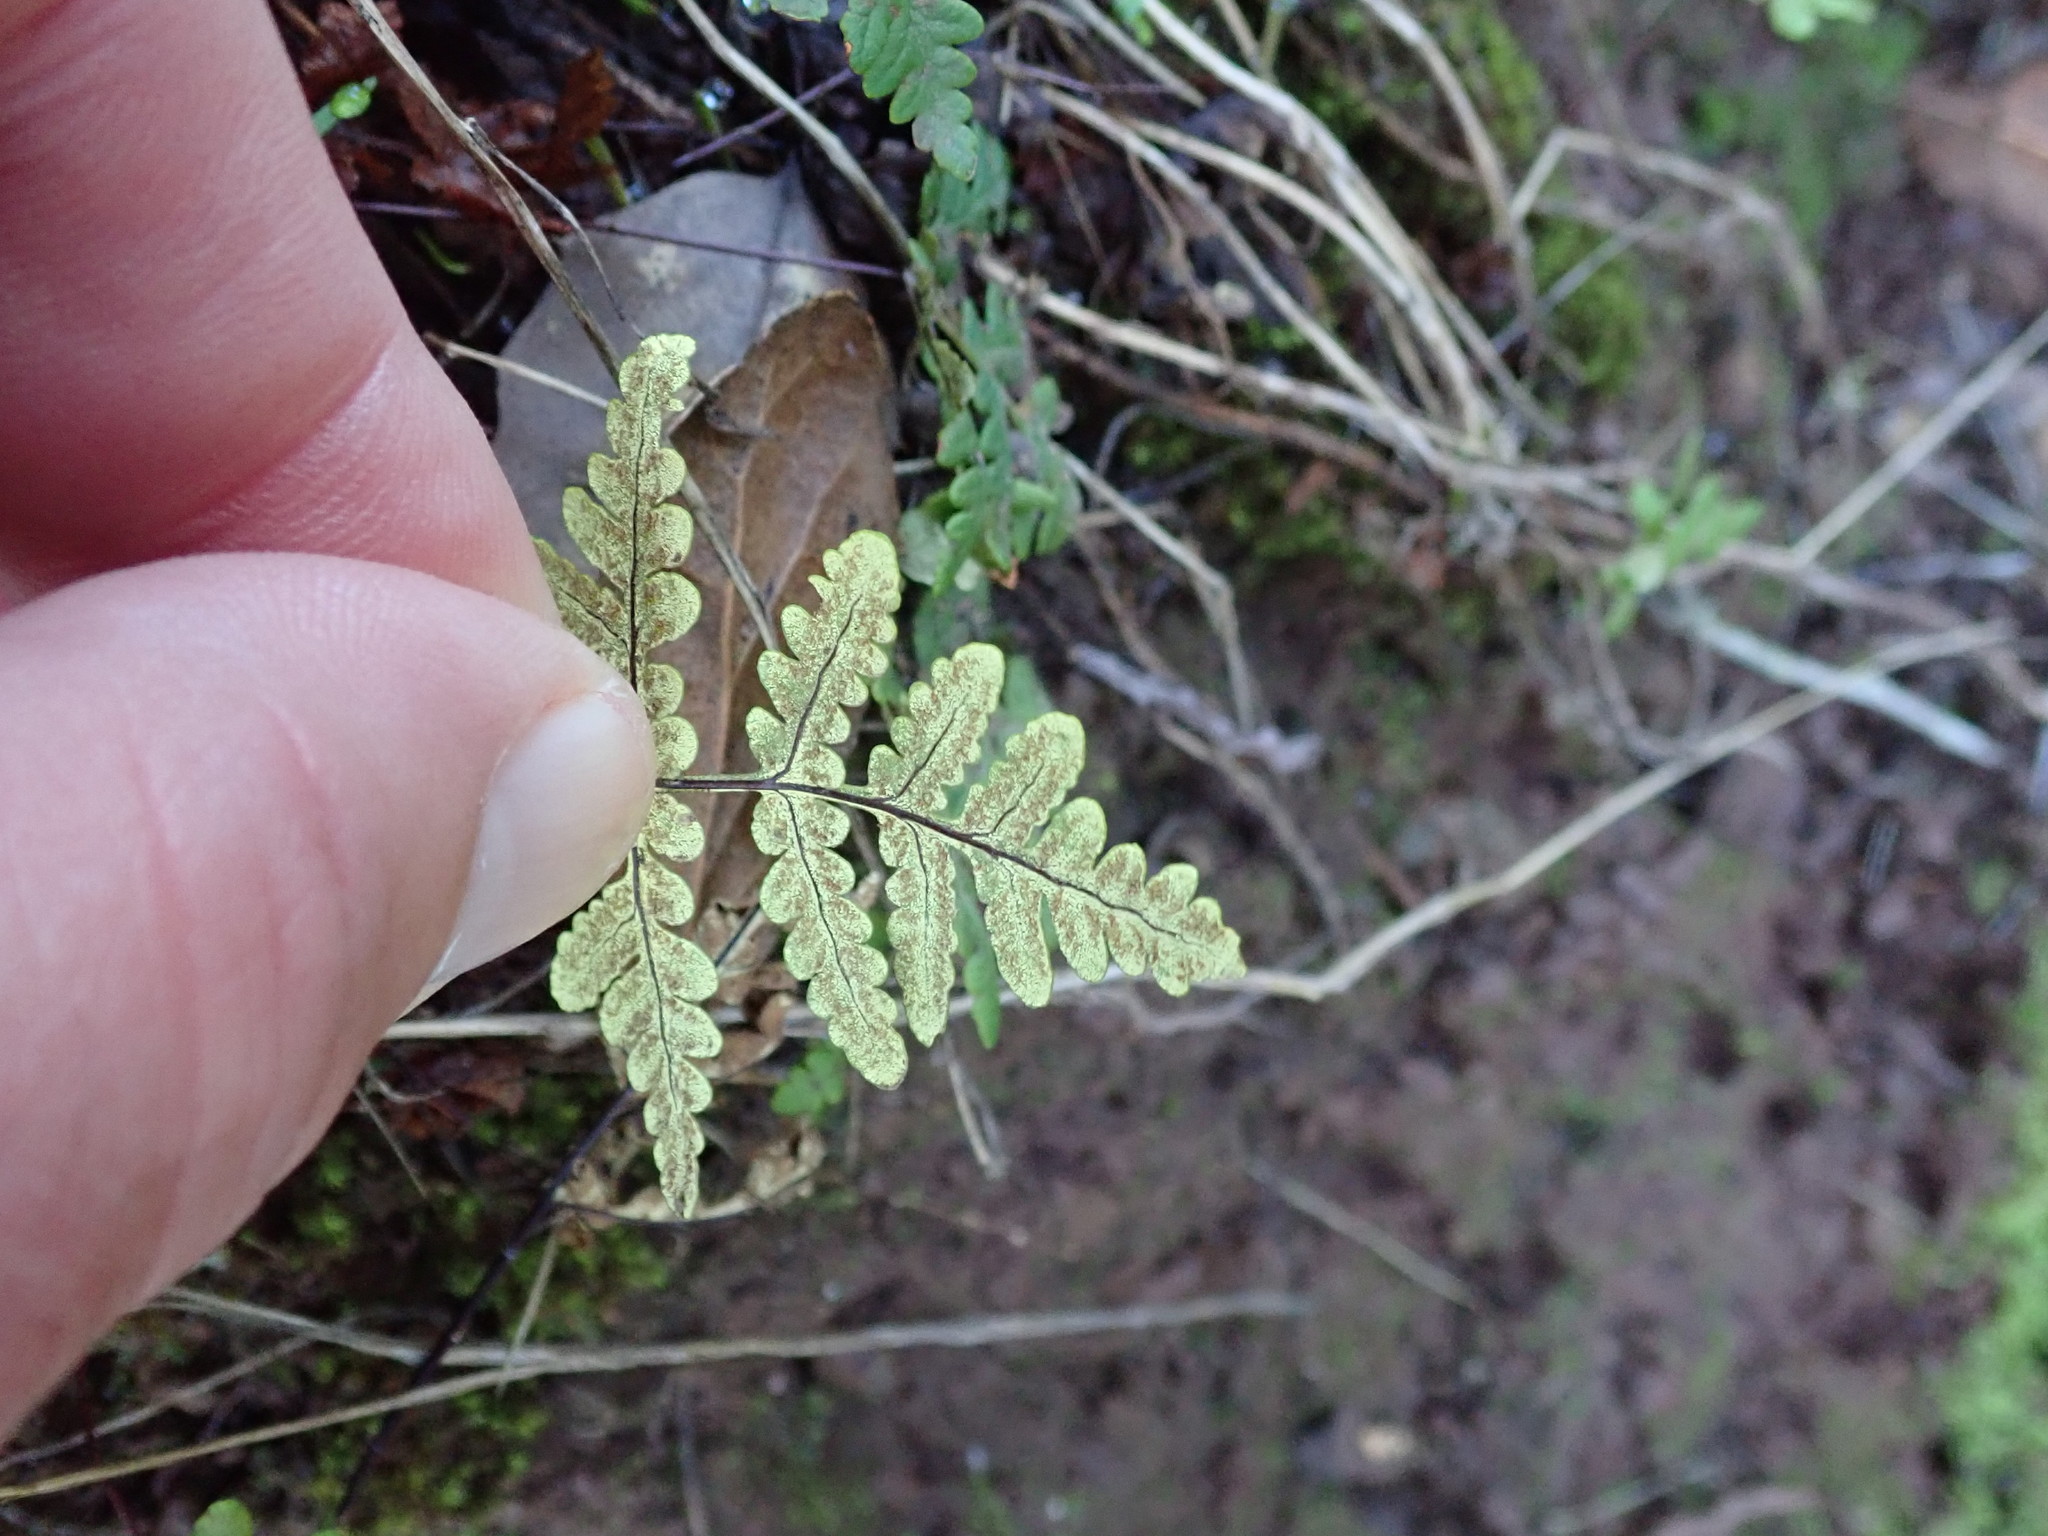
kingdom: Plantae
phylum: Tracheophyta
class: Polypodiopsida
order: Polypodiales
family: Pteridaceae
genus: Pentagramma
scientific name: Pentagramma triangularis
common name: Gold fern
